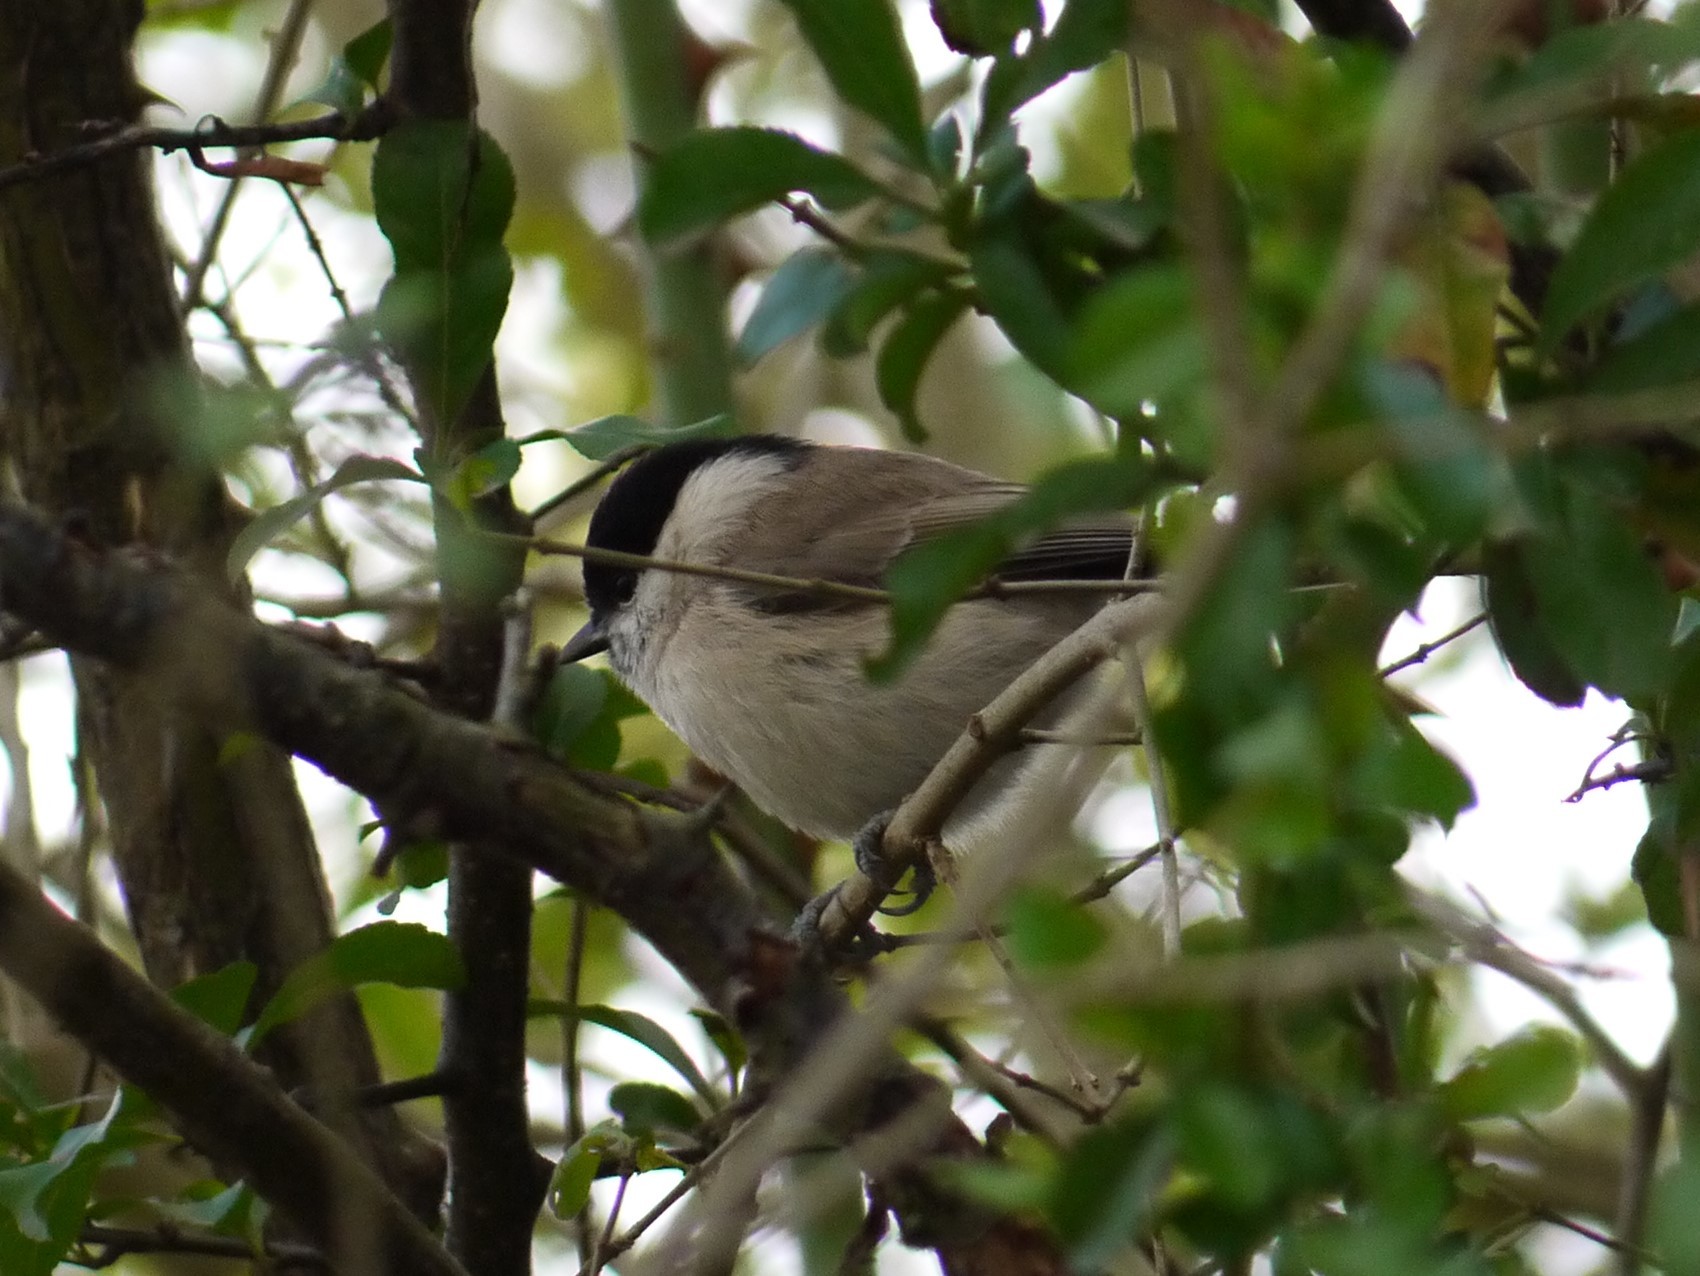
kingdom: Animalia
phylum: Chordata
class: Aves
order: Passeriformes
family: Paridae
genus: Poecile
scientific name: Poecile palustris
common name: Marsh tit
